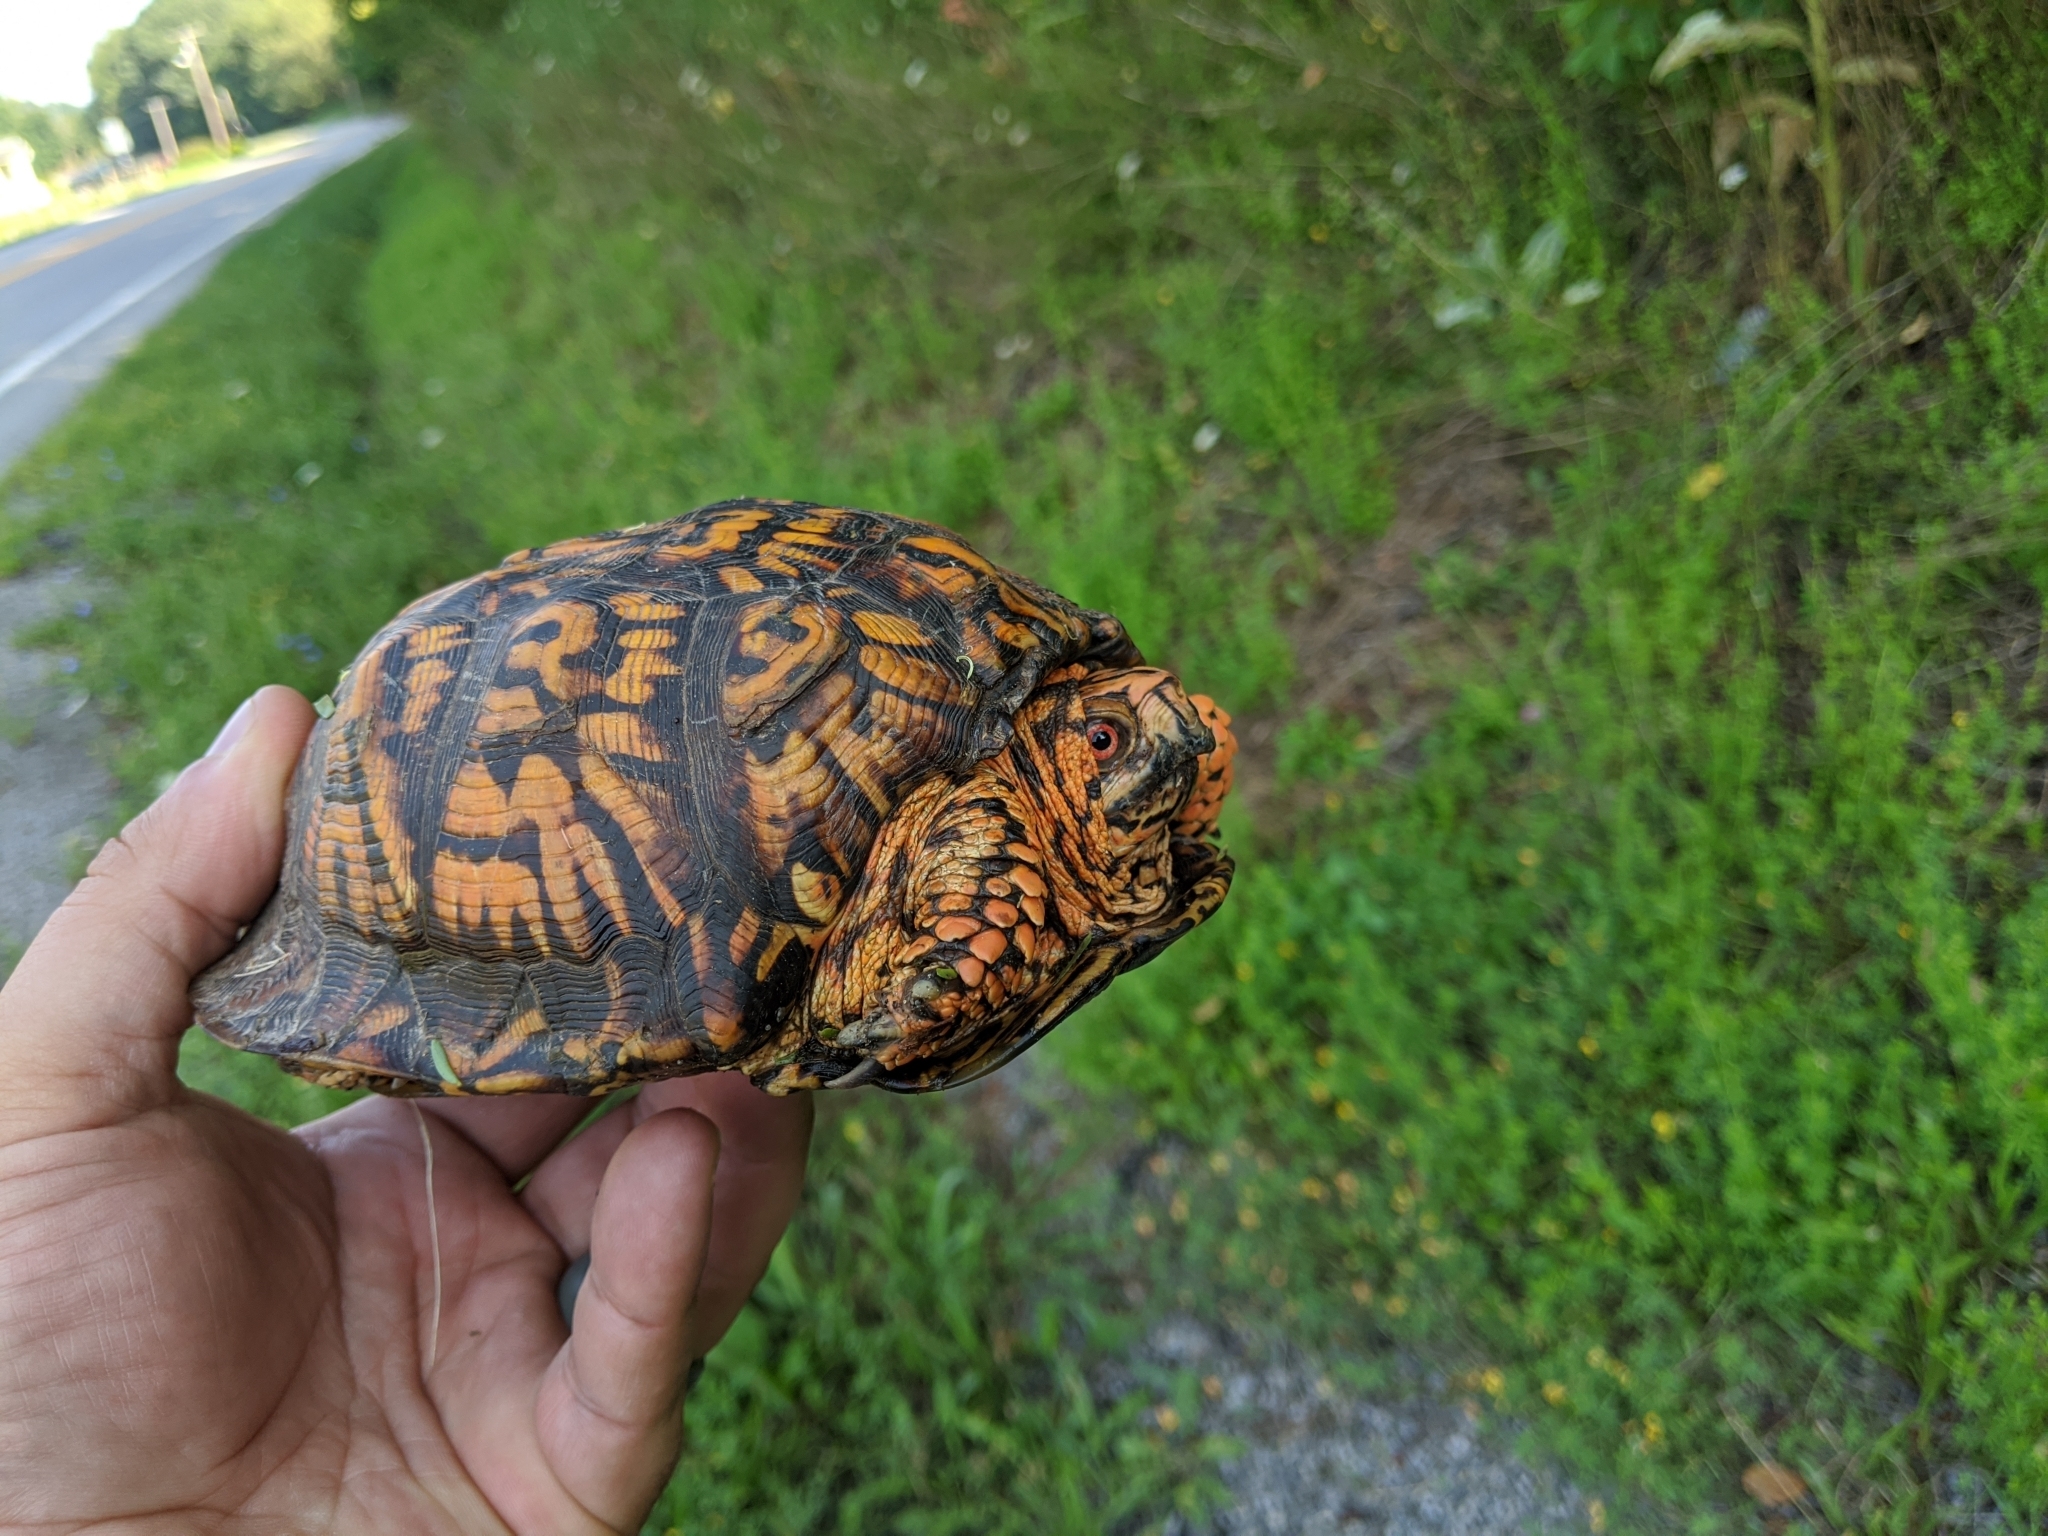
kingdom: Animalia
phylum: Chordata
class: Testudines
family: Emydidae
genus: Terrapene
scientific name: Terrapene carolina
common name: Common box turtle
